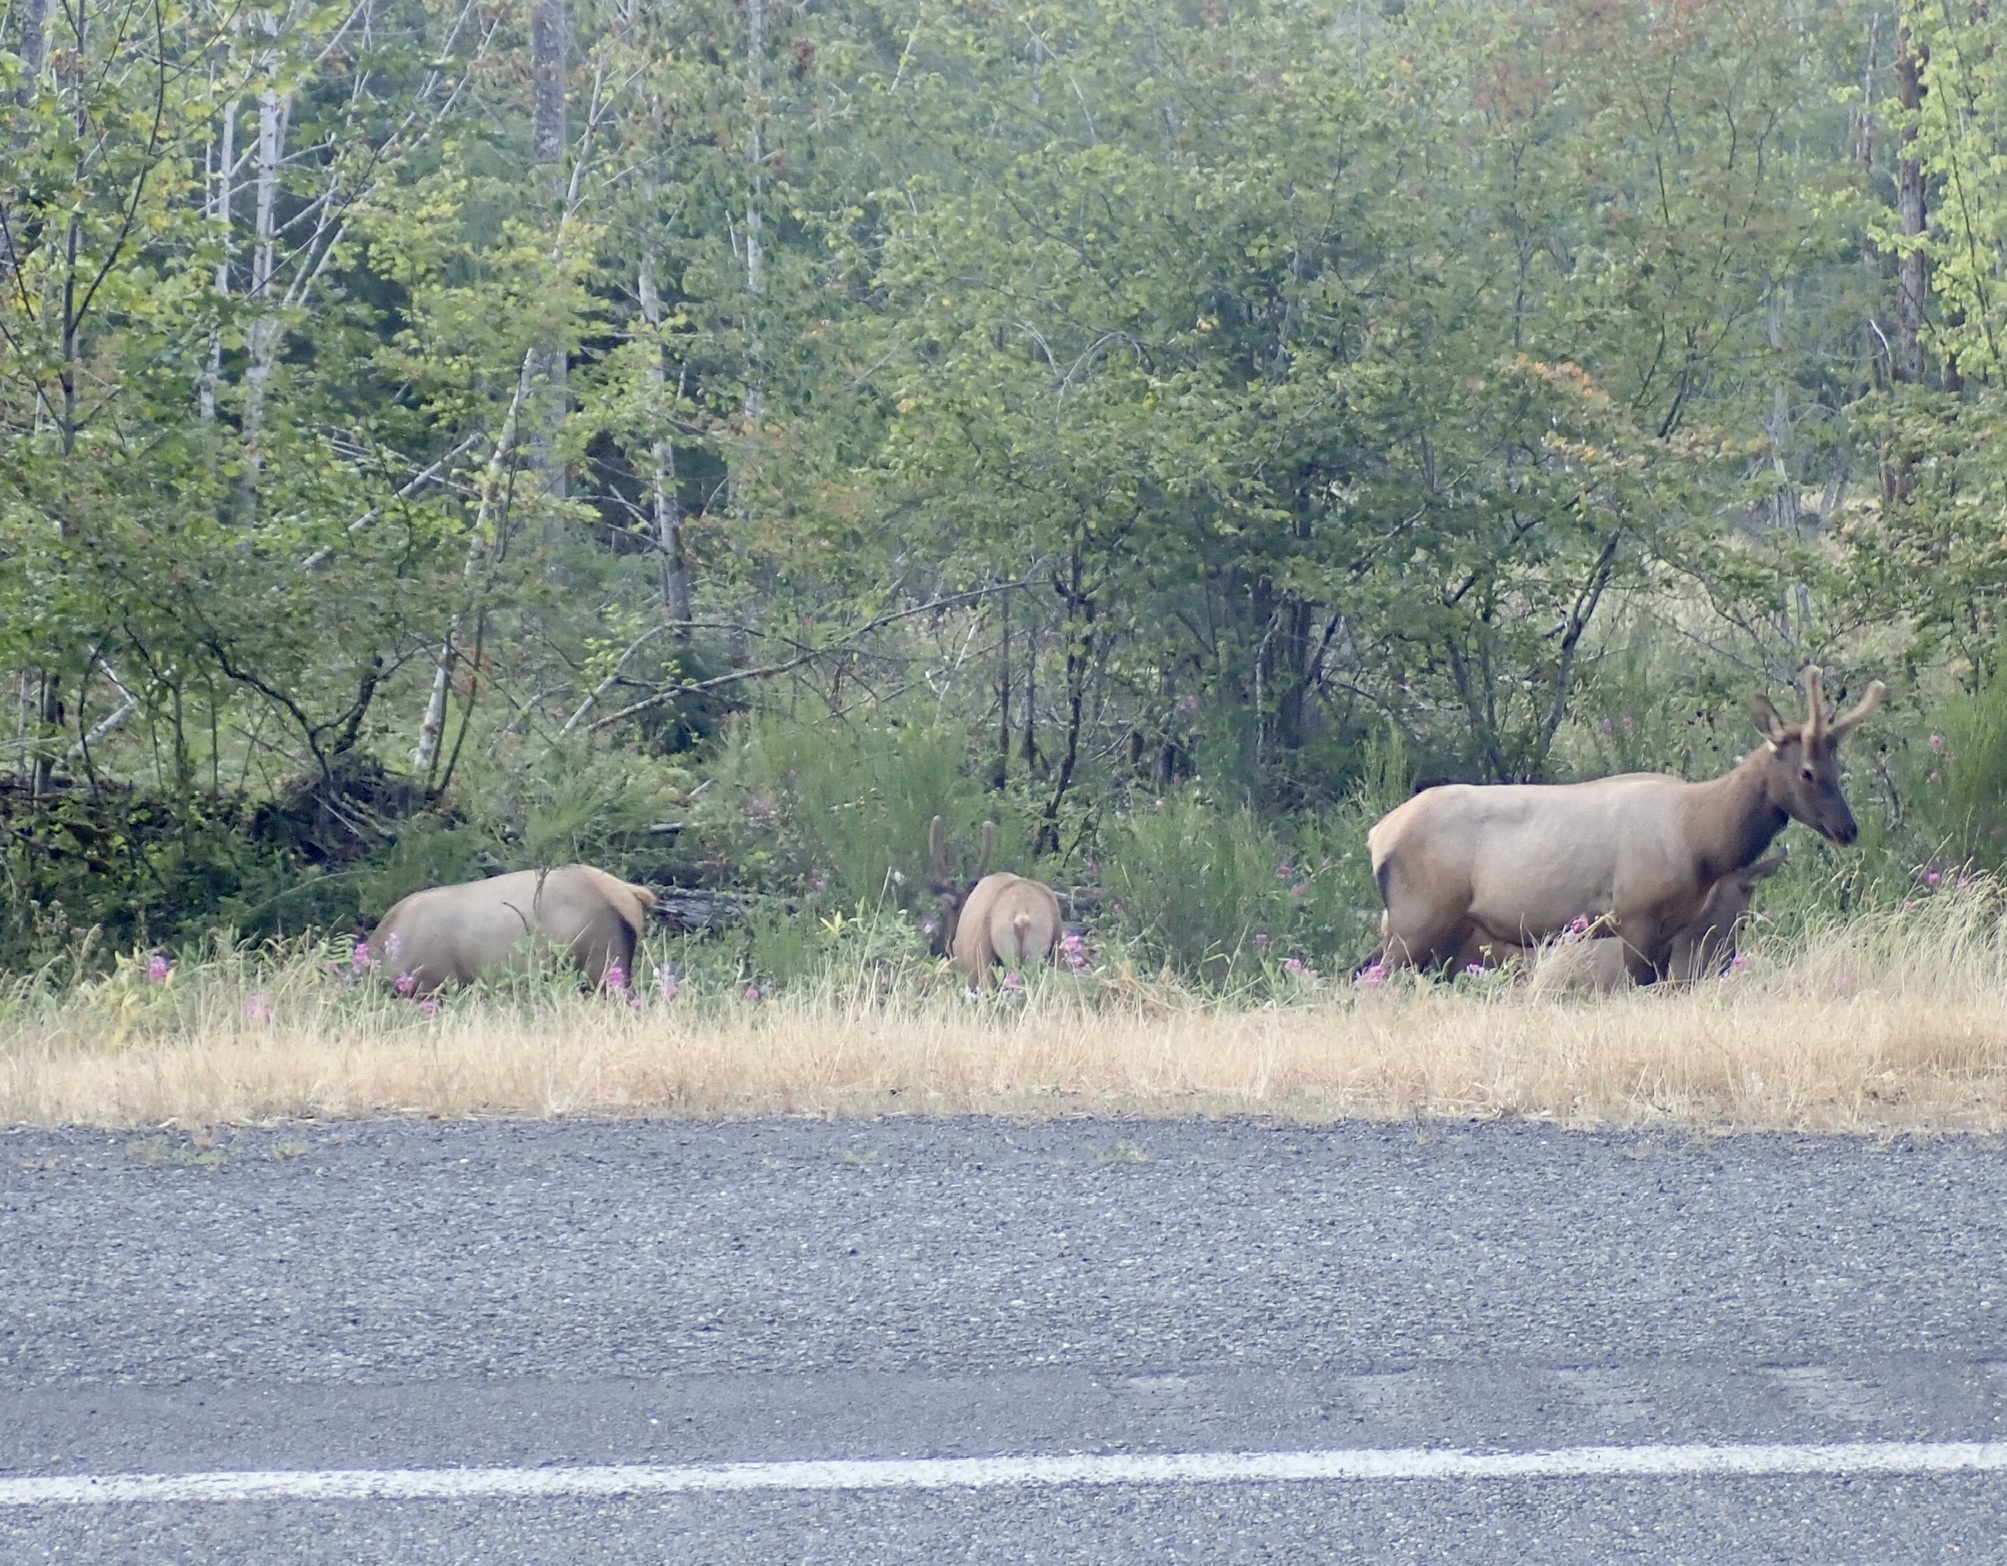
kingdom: Animalia
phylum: Chordata
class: Mammalia
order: Artiodactyla
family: Cervidae
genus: Cervus
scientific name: Cervus elaphus
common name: Red deer
